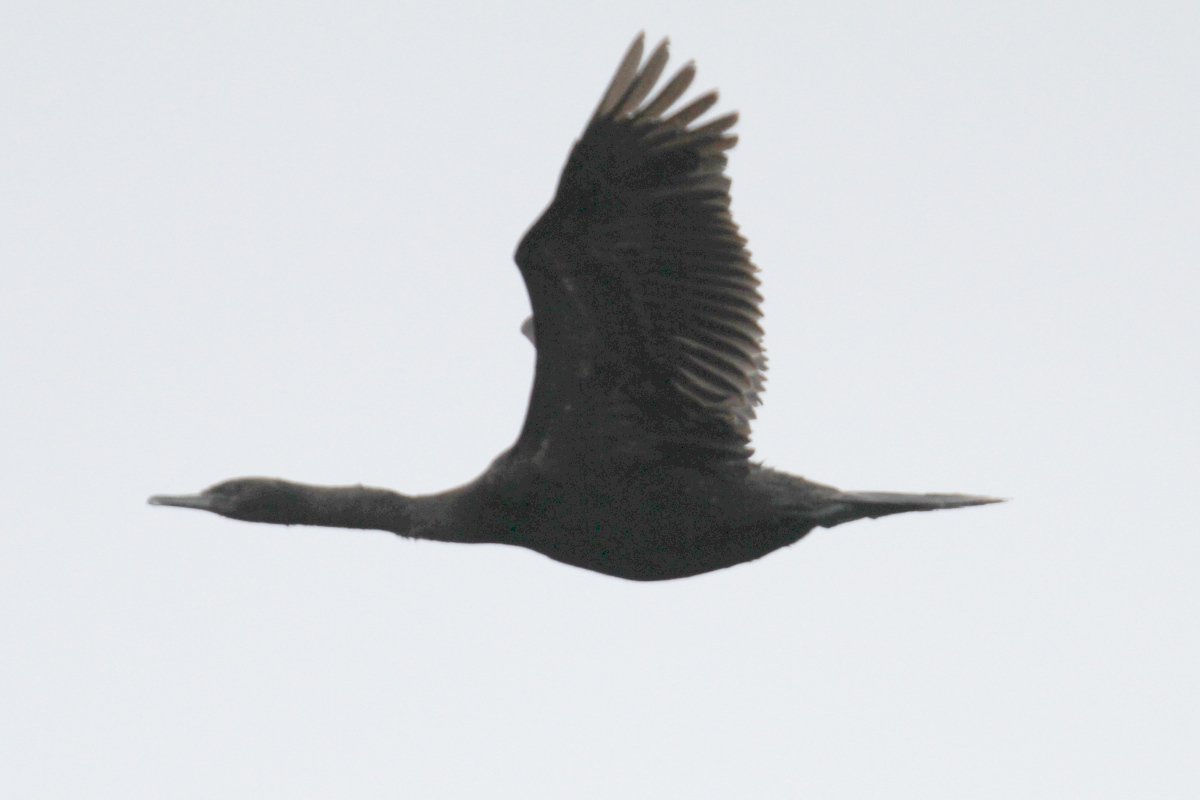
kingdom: Animalia
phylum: Chordata
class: Aves
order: Suliformes
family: Phalacrocoracidae
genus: Phalacrocorax
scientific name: Phalacrocorax pelagicus
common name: Pelagic cormorant
